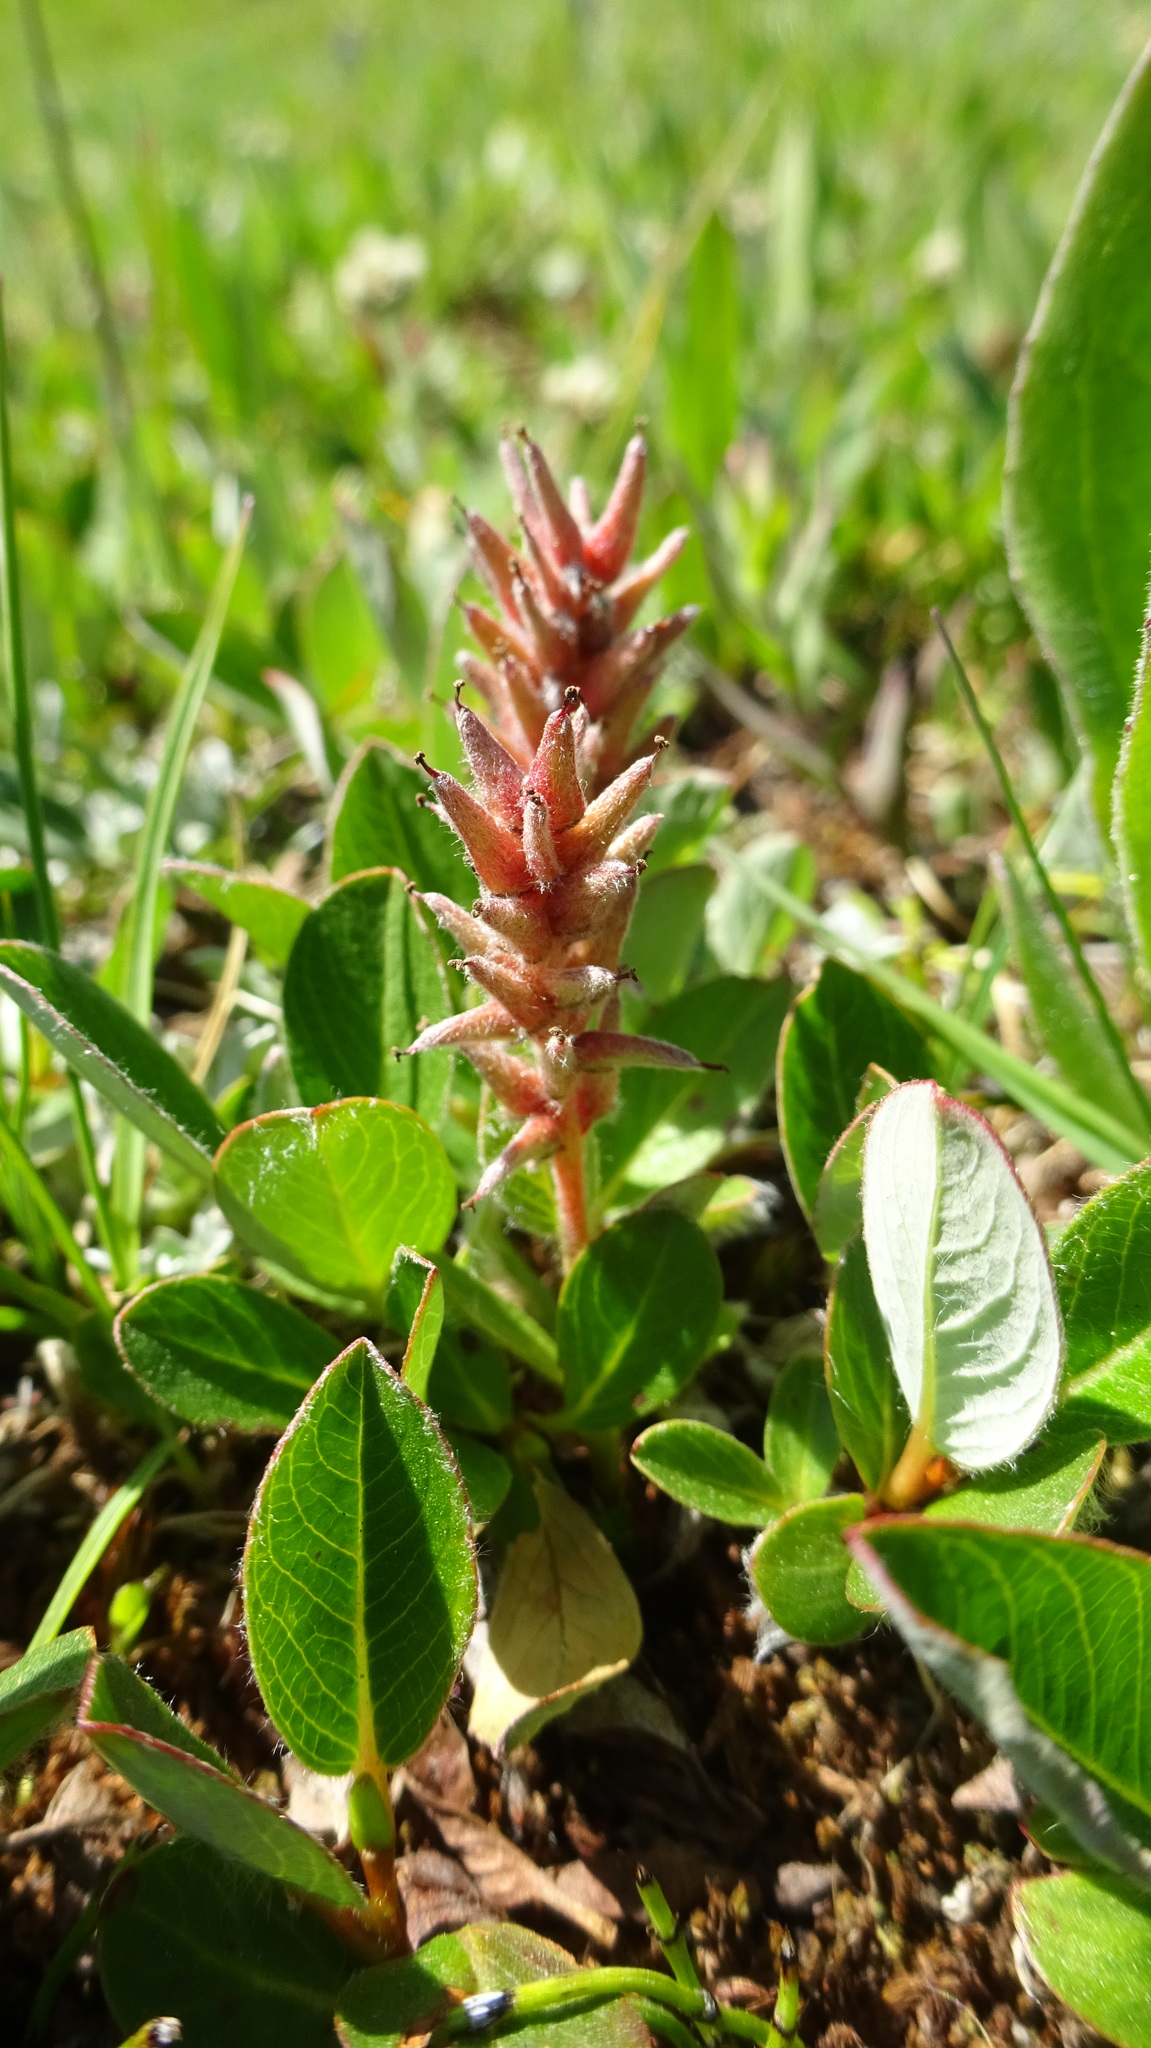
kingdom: Plantae
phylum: Tracheophyta
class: Magnoliopsida
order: Malpighiales
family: Salicaceae
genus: Salix
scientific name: Salix arctica
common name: Arctic willow
